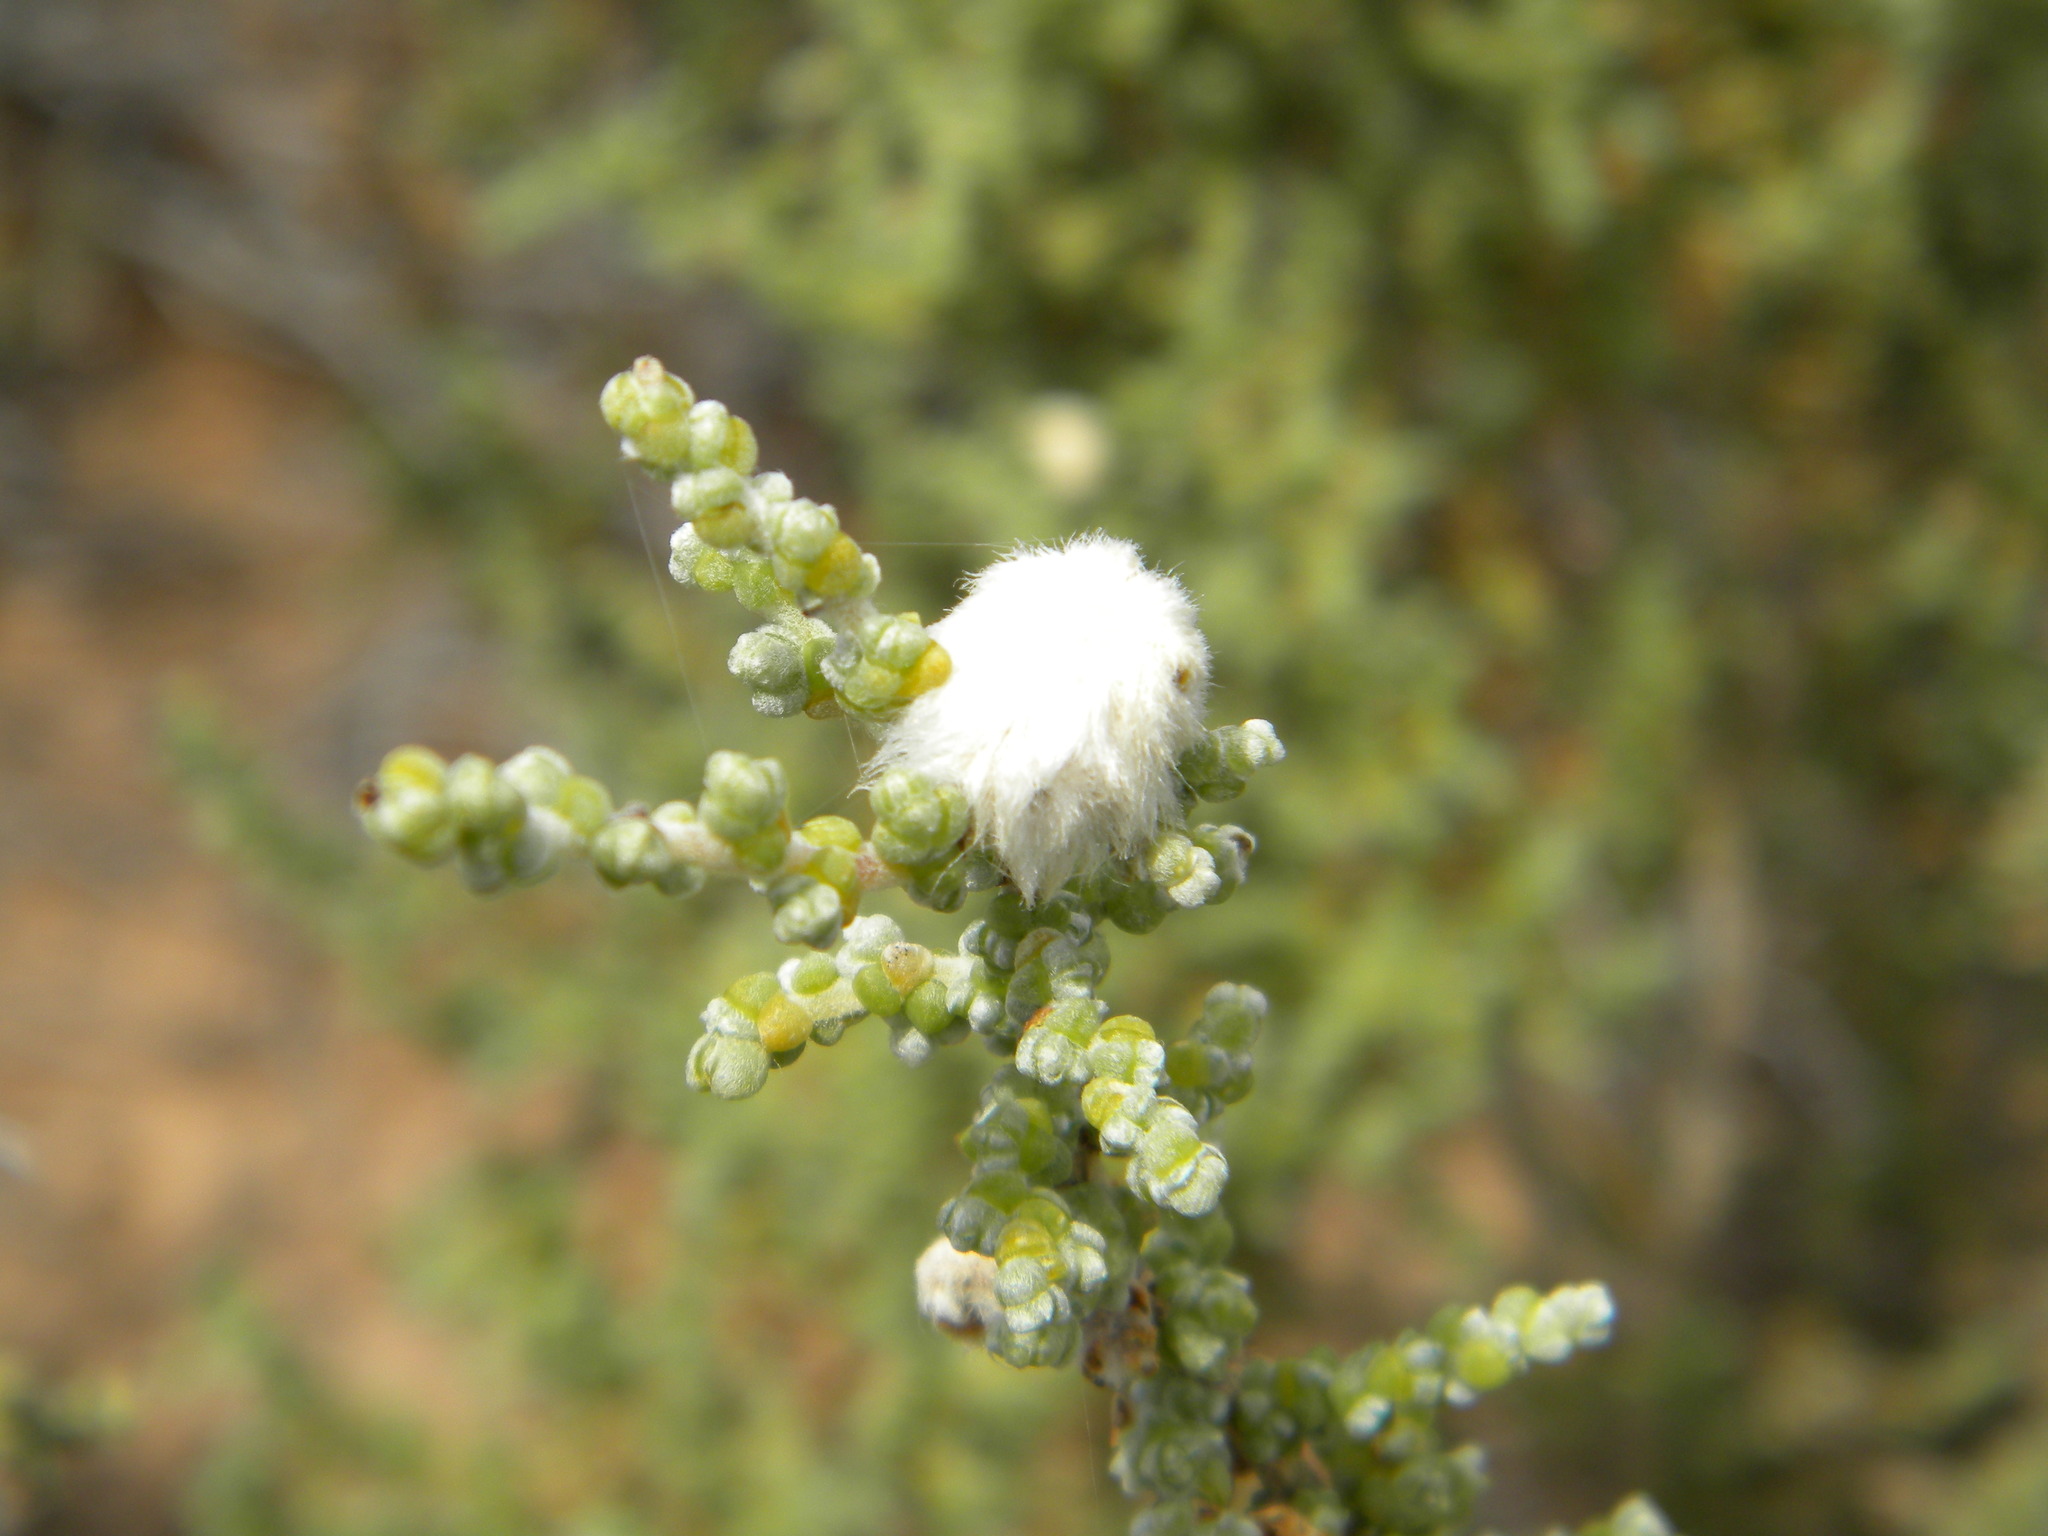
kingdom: Plantae
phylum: Tracheophyta
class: Magnoliopsida
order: Caryophyllales
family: Amaranthaceae
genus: Caroxylon
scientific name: Caroxylon aphyllum
